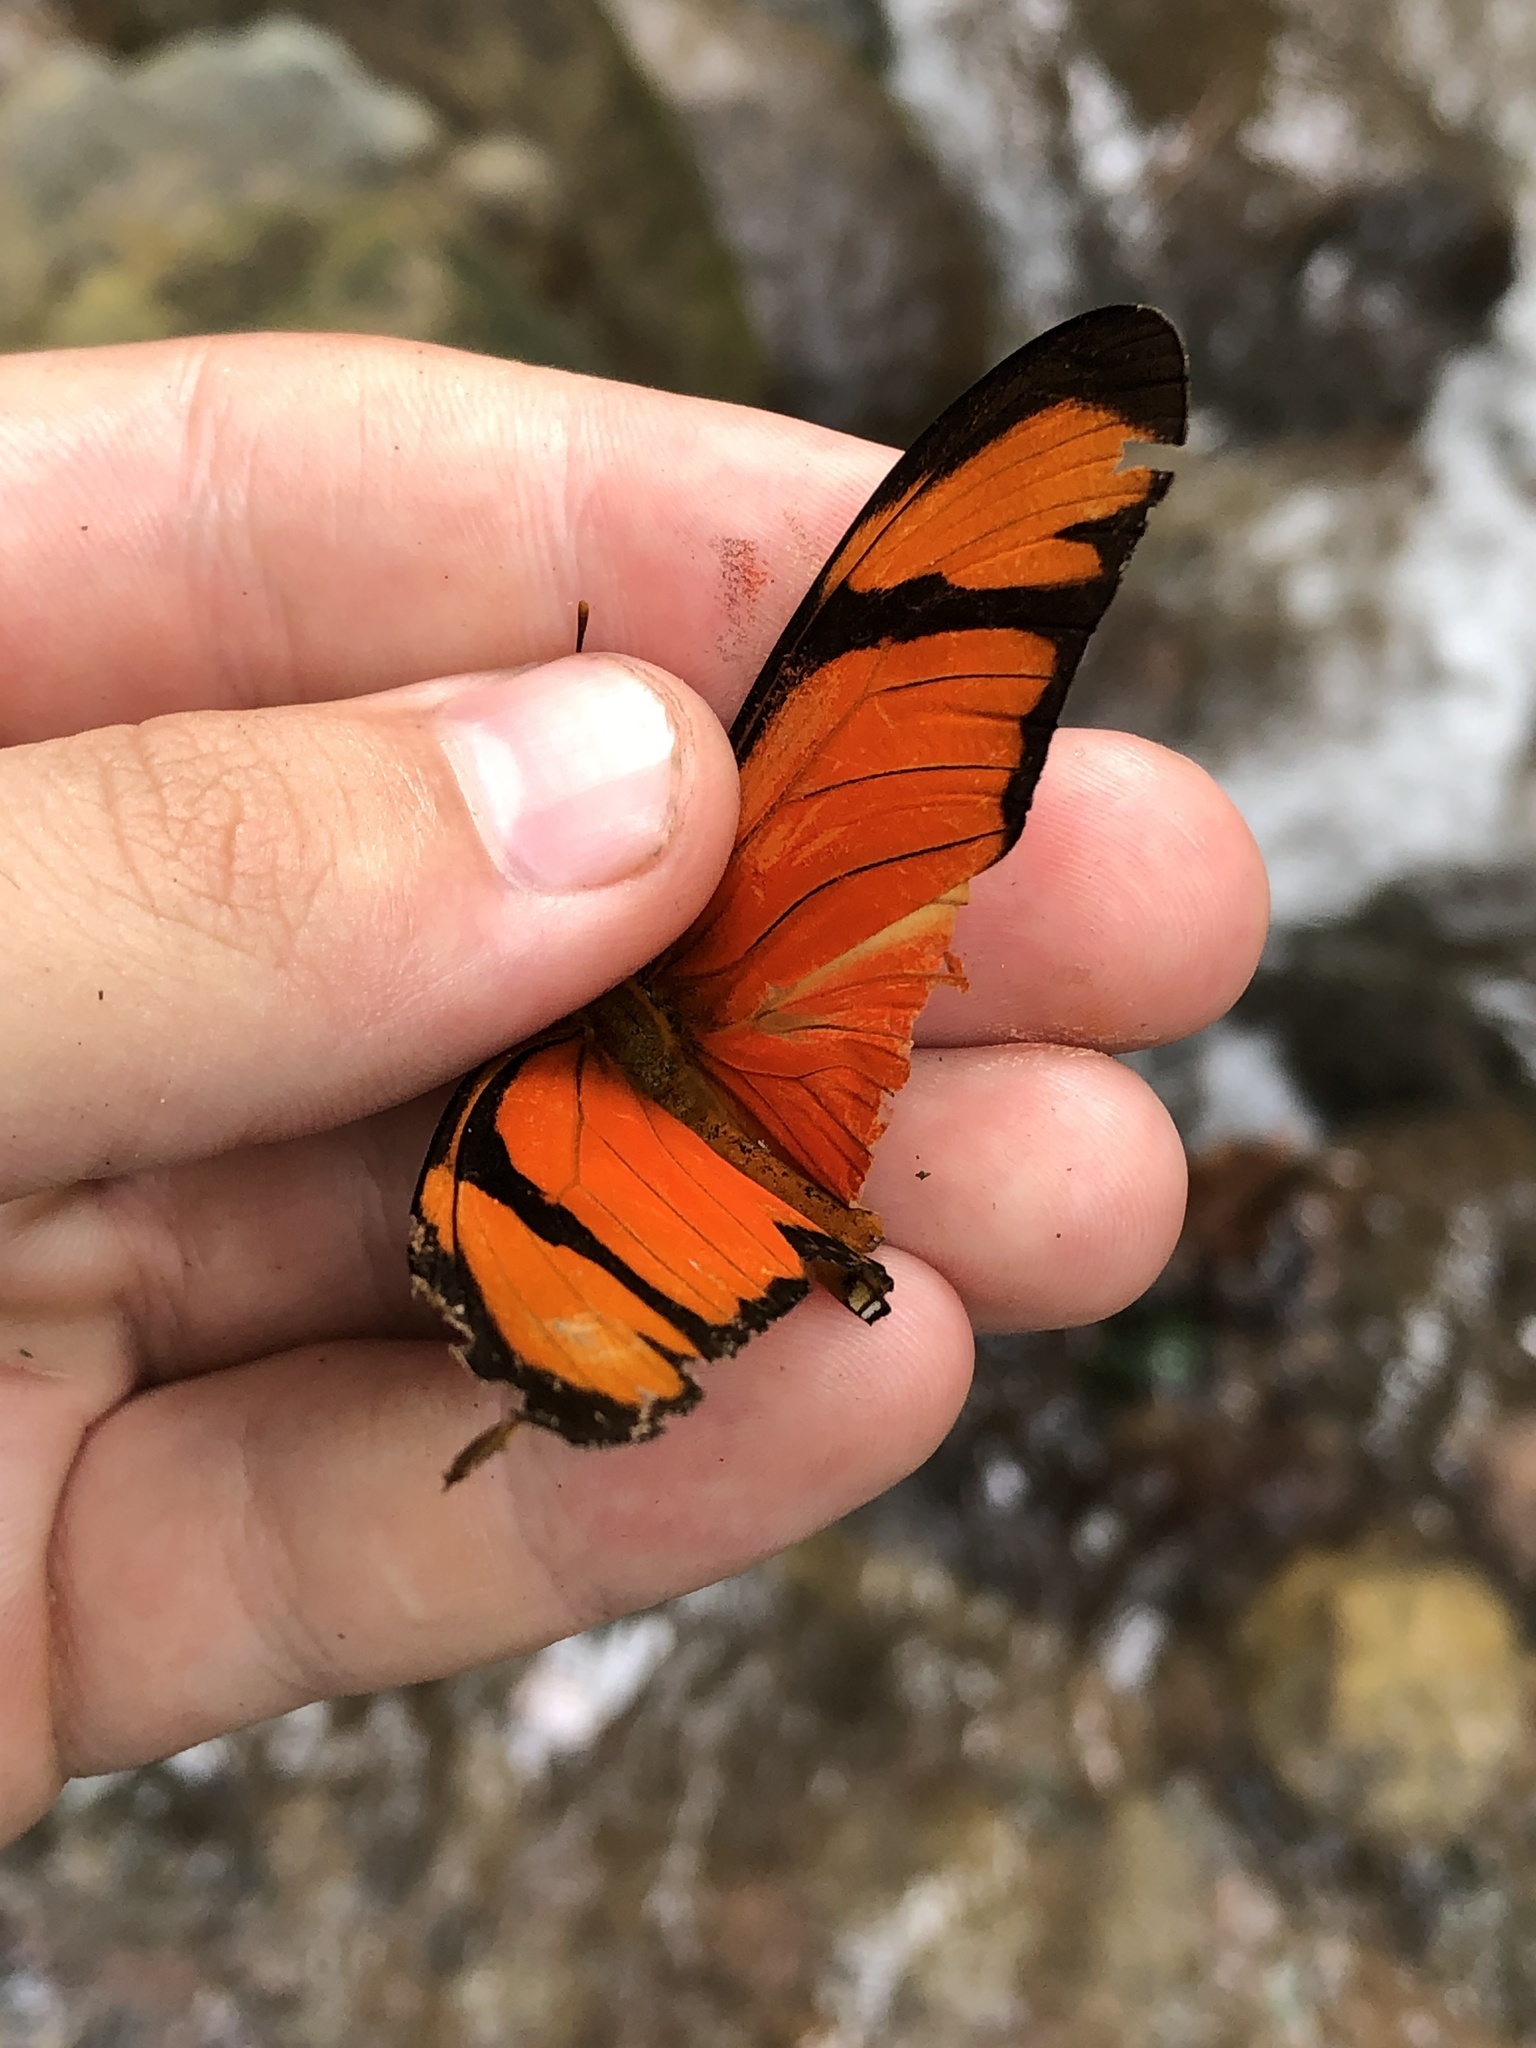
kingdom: Animalia
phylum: Arthropoda
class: Insecta
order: Lepidoptera
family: Nymphalidae
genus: Dryas
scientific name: Dryas iulia
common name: Flambeau
